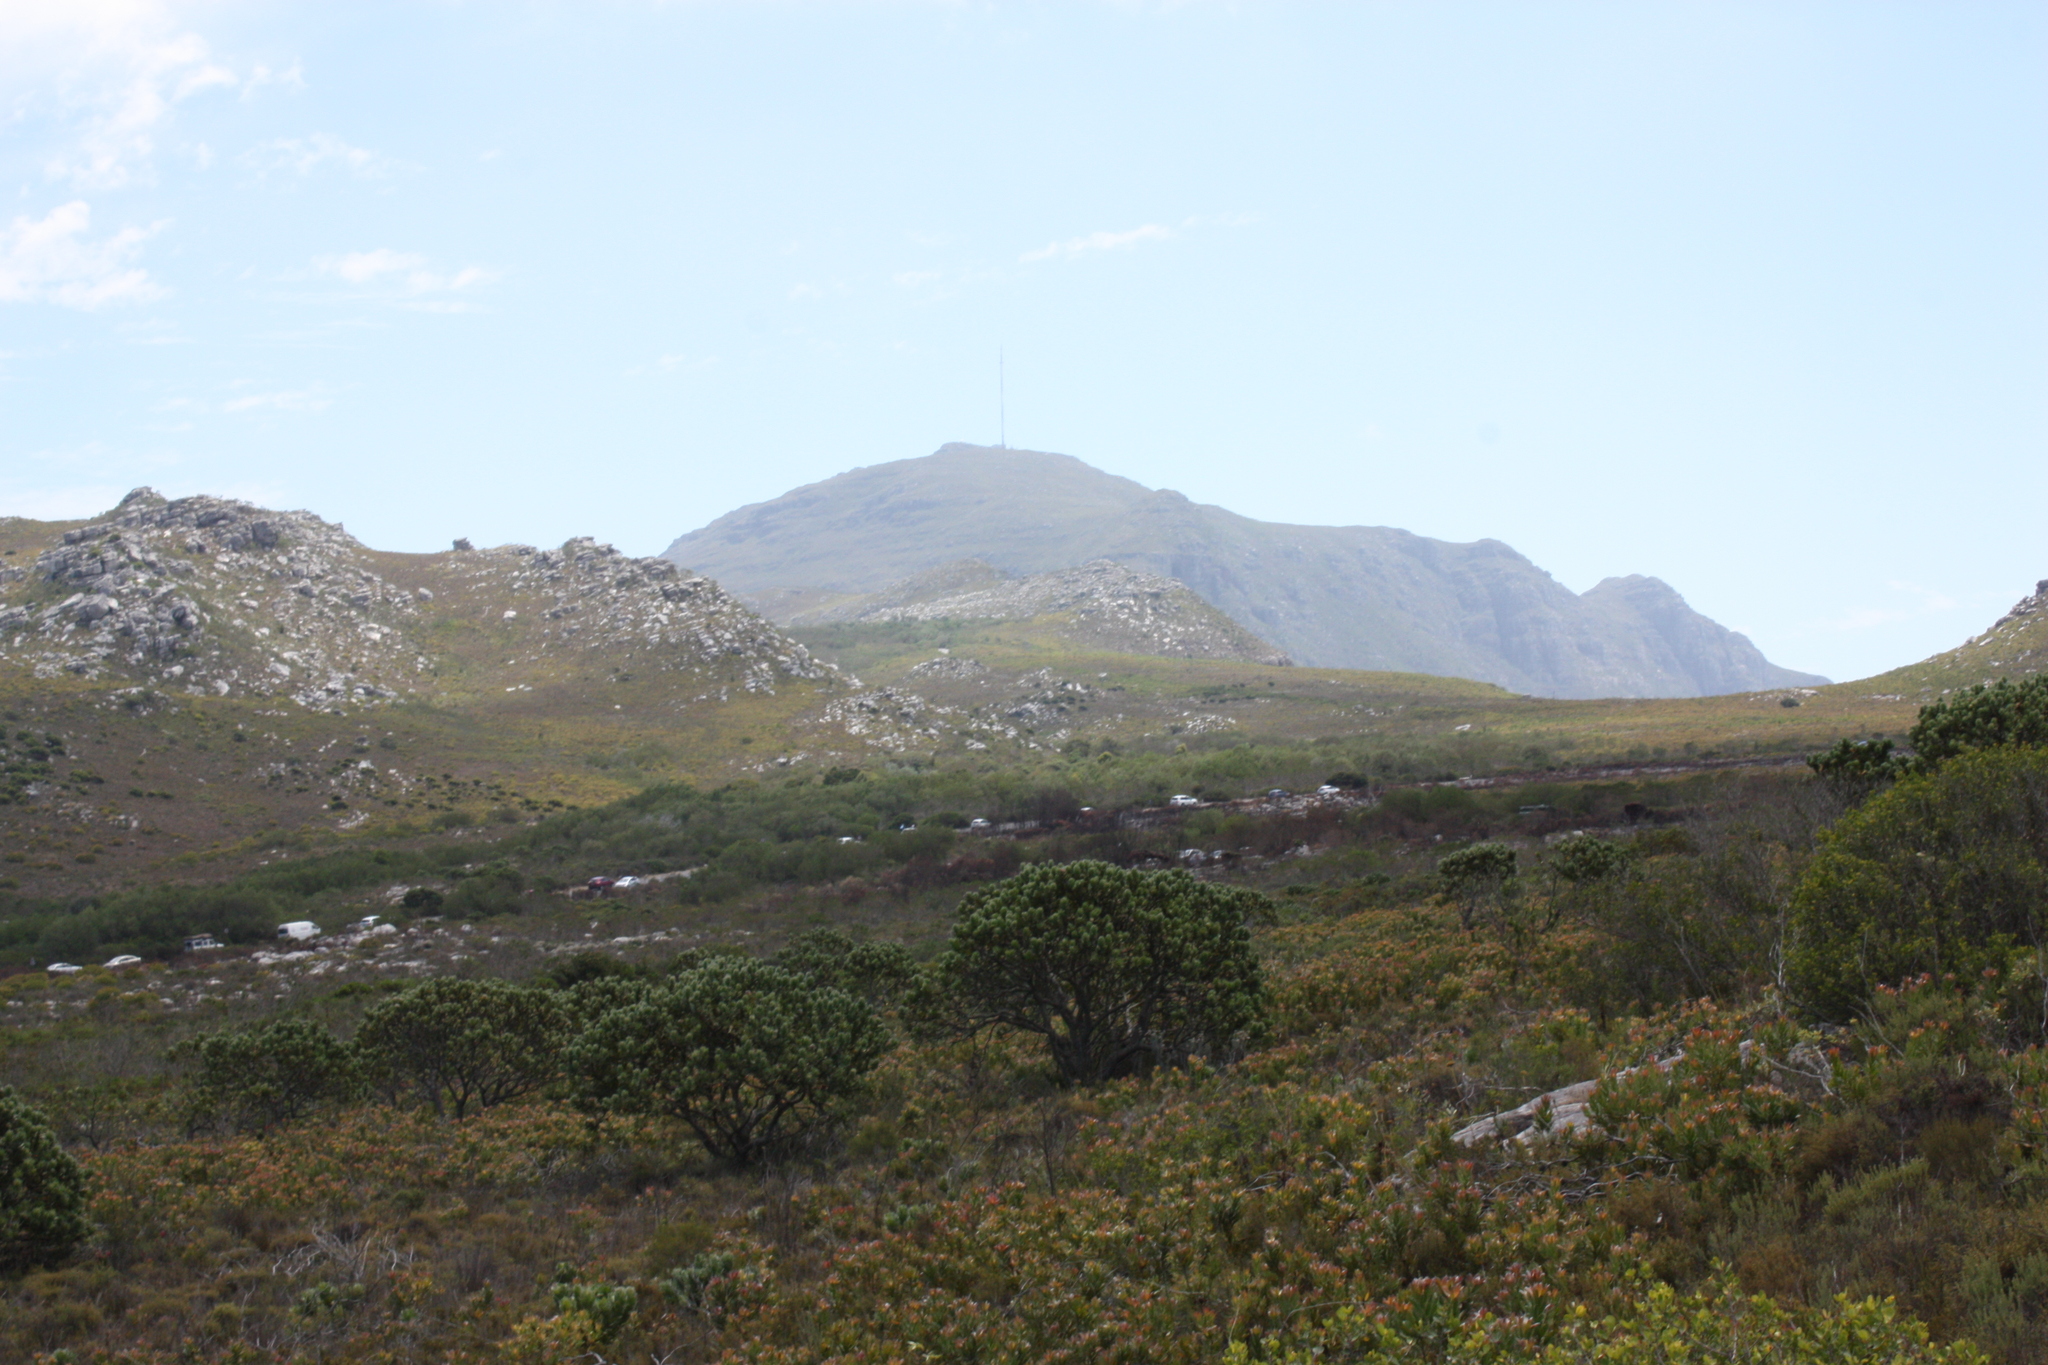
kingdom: Plantae
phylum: Tracheophyta
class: Magnoliopsida
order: Proteales
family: Proteaceae
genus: Leucadendron
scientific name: Leucadendron laureolum
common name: Golden sunshinebush
